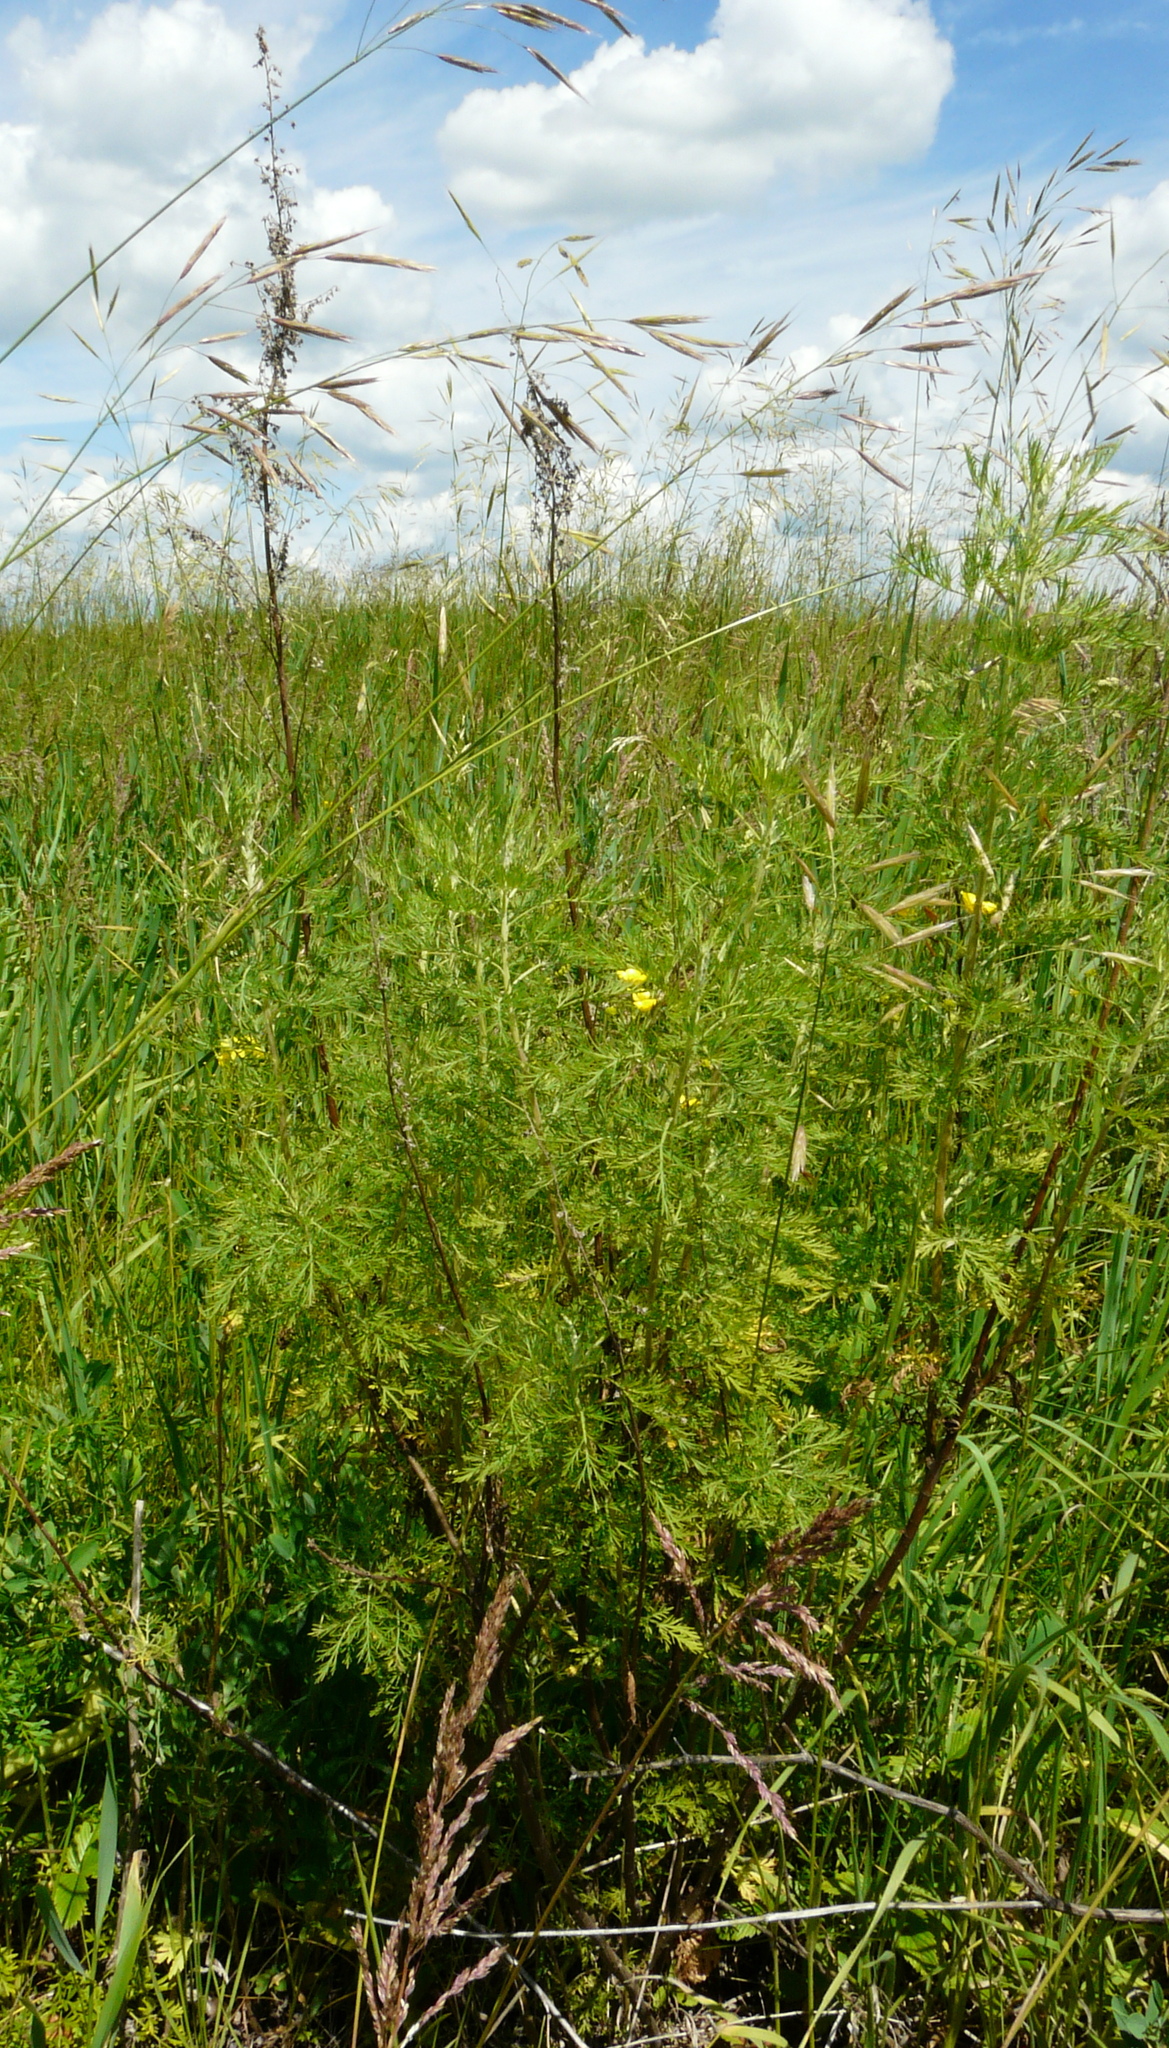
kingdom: Plantae
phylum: Tracheophyta
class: Magnoliopsida
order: Asterales
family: Asteraceae
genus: Artemisia
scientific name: Artemisia abrotanum
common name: Southernwood
